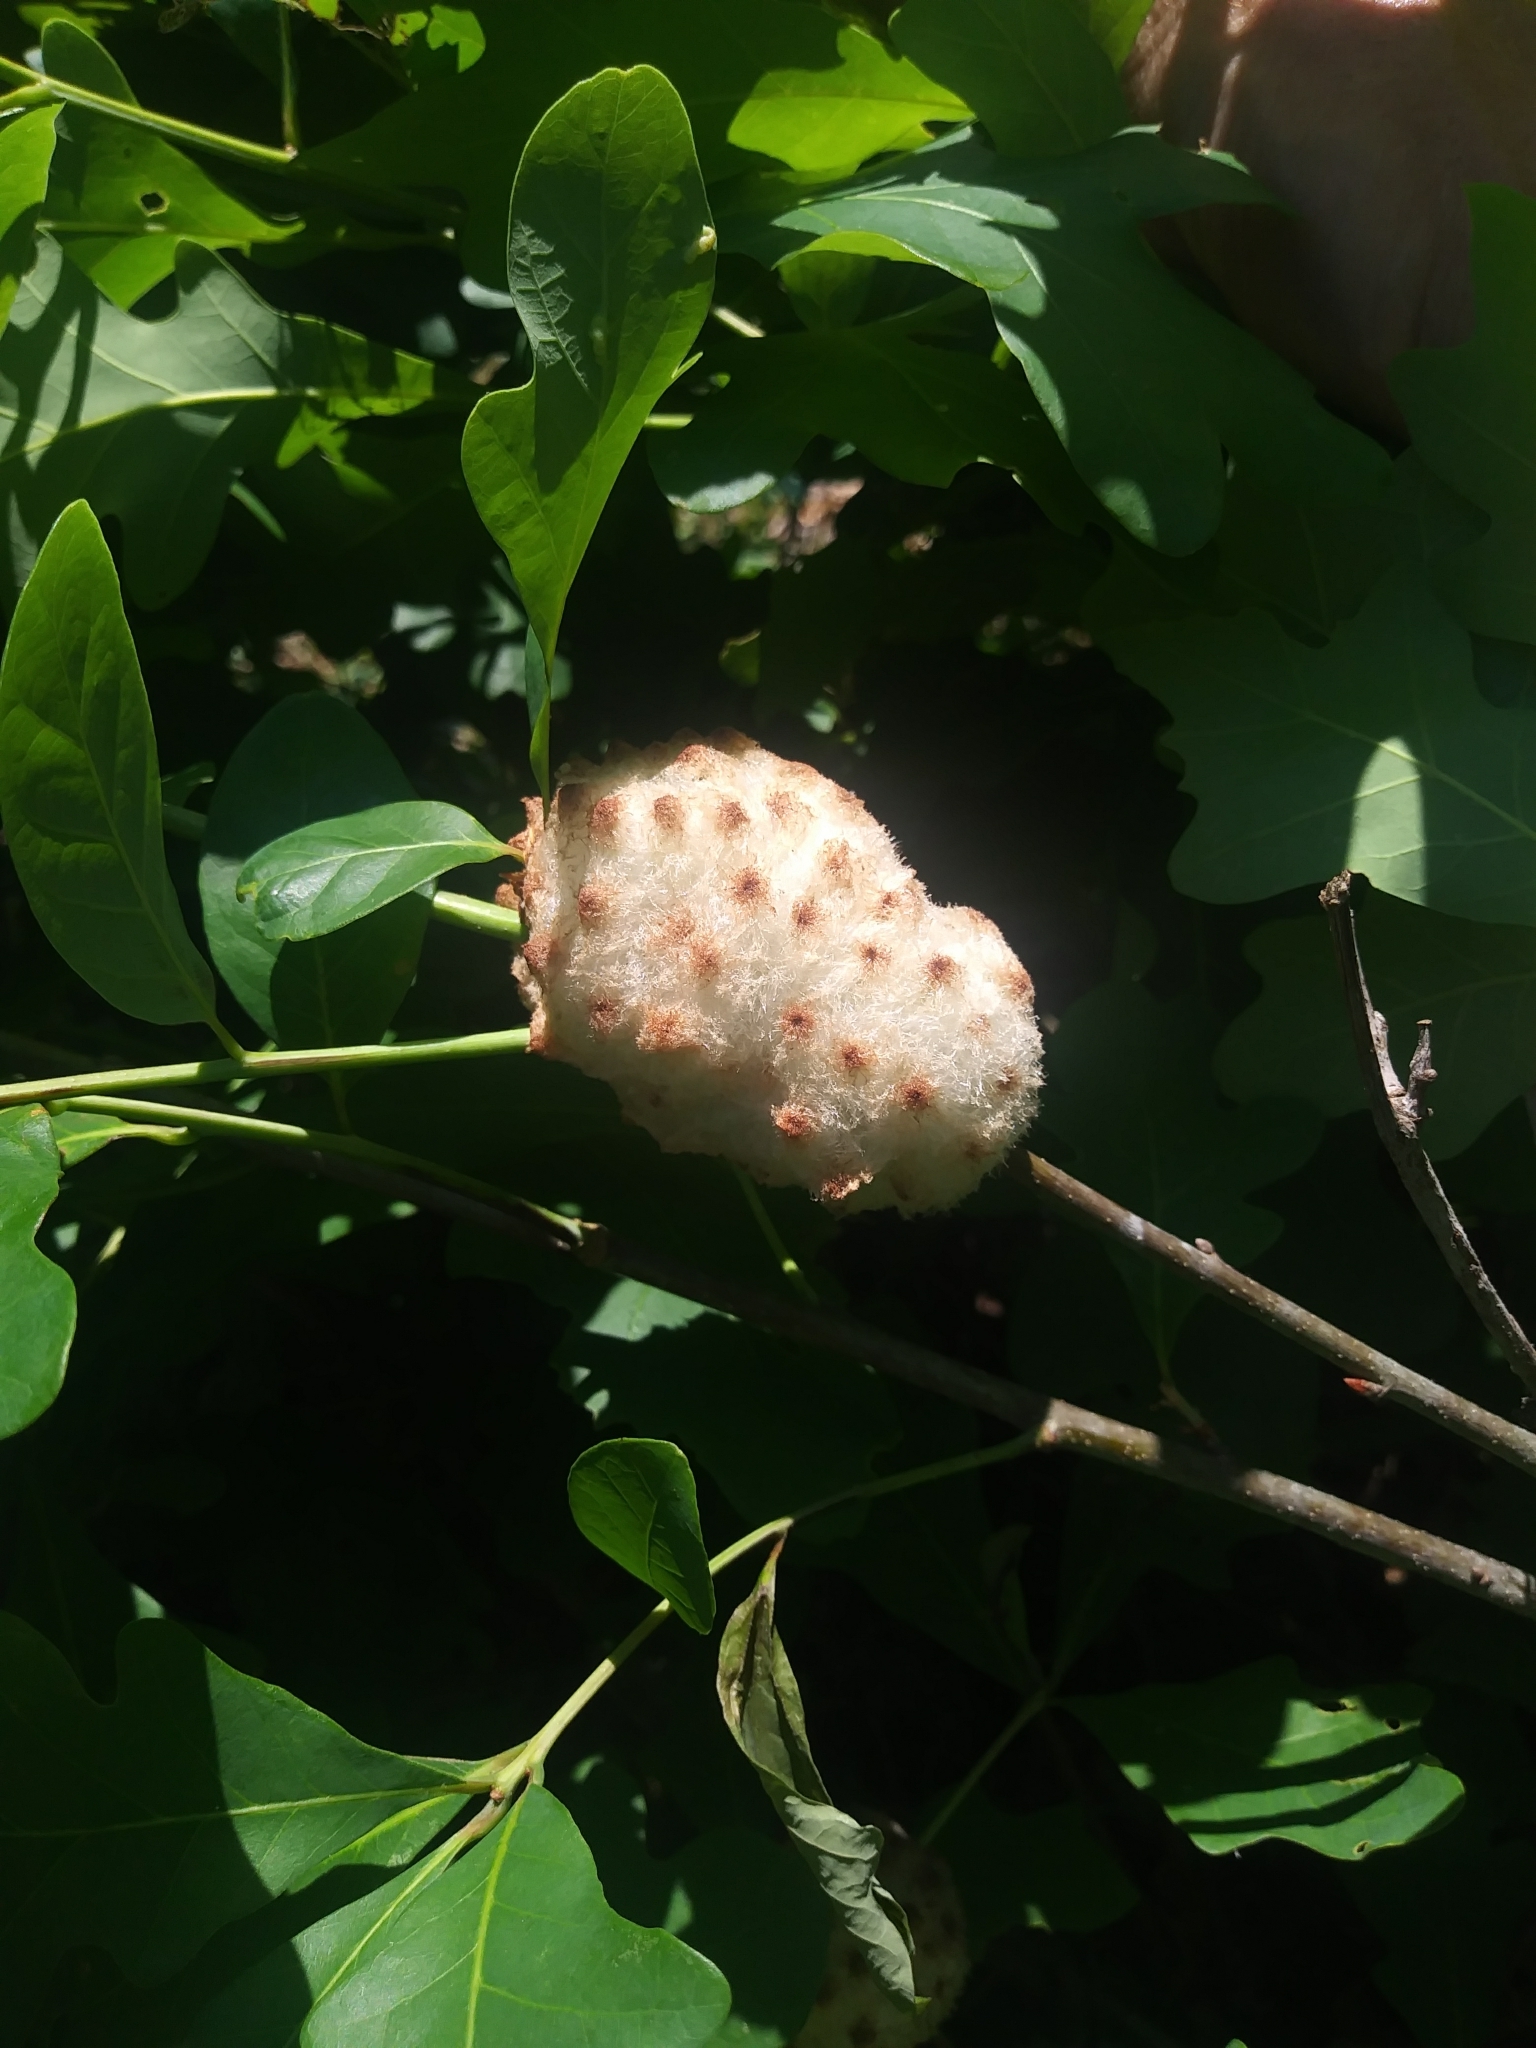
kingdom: Animalia
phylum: Arthropoda
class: Insecta
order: Hymenoptera
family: Cynipidae
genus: Callirhytis
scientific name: Callirhytis
